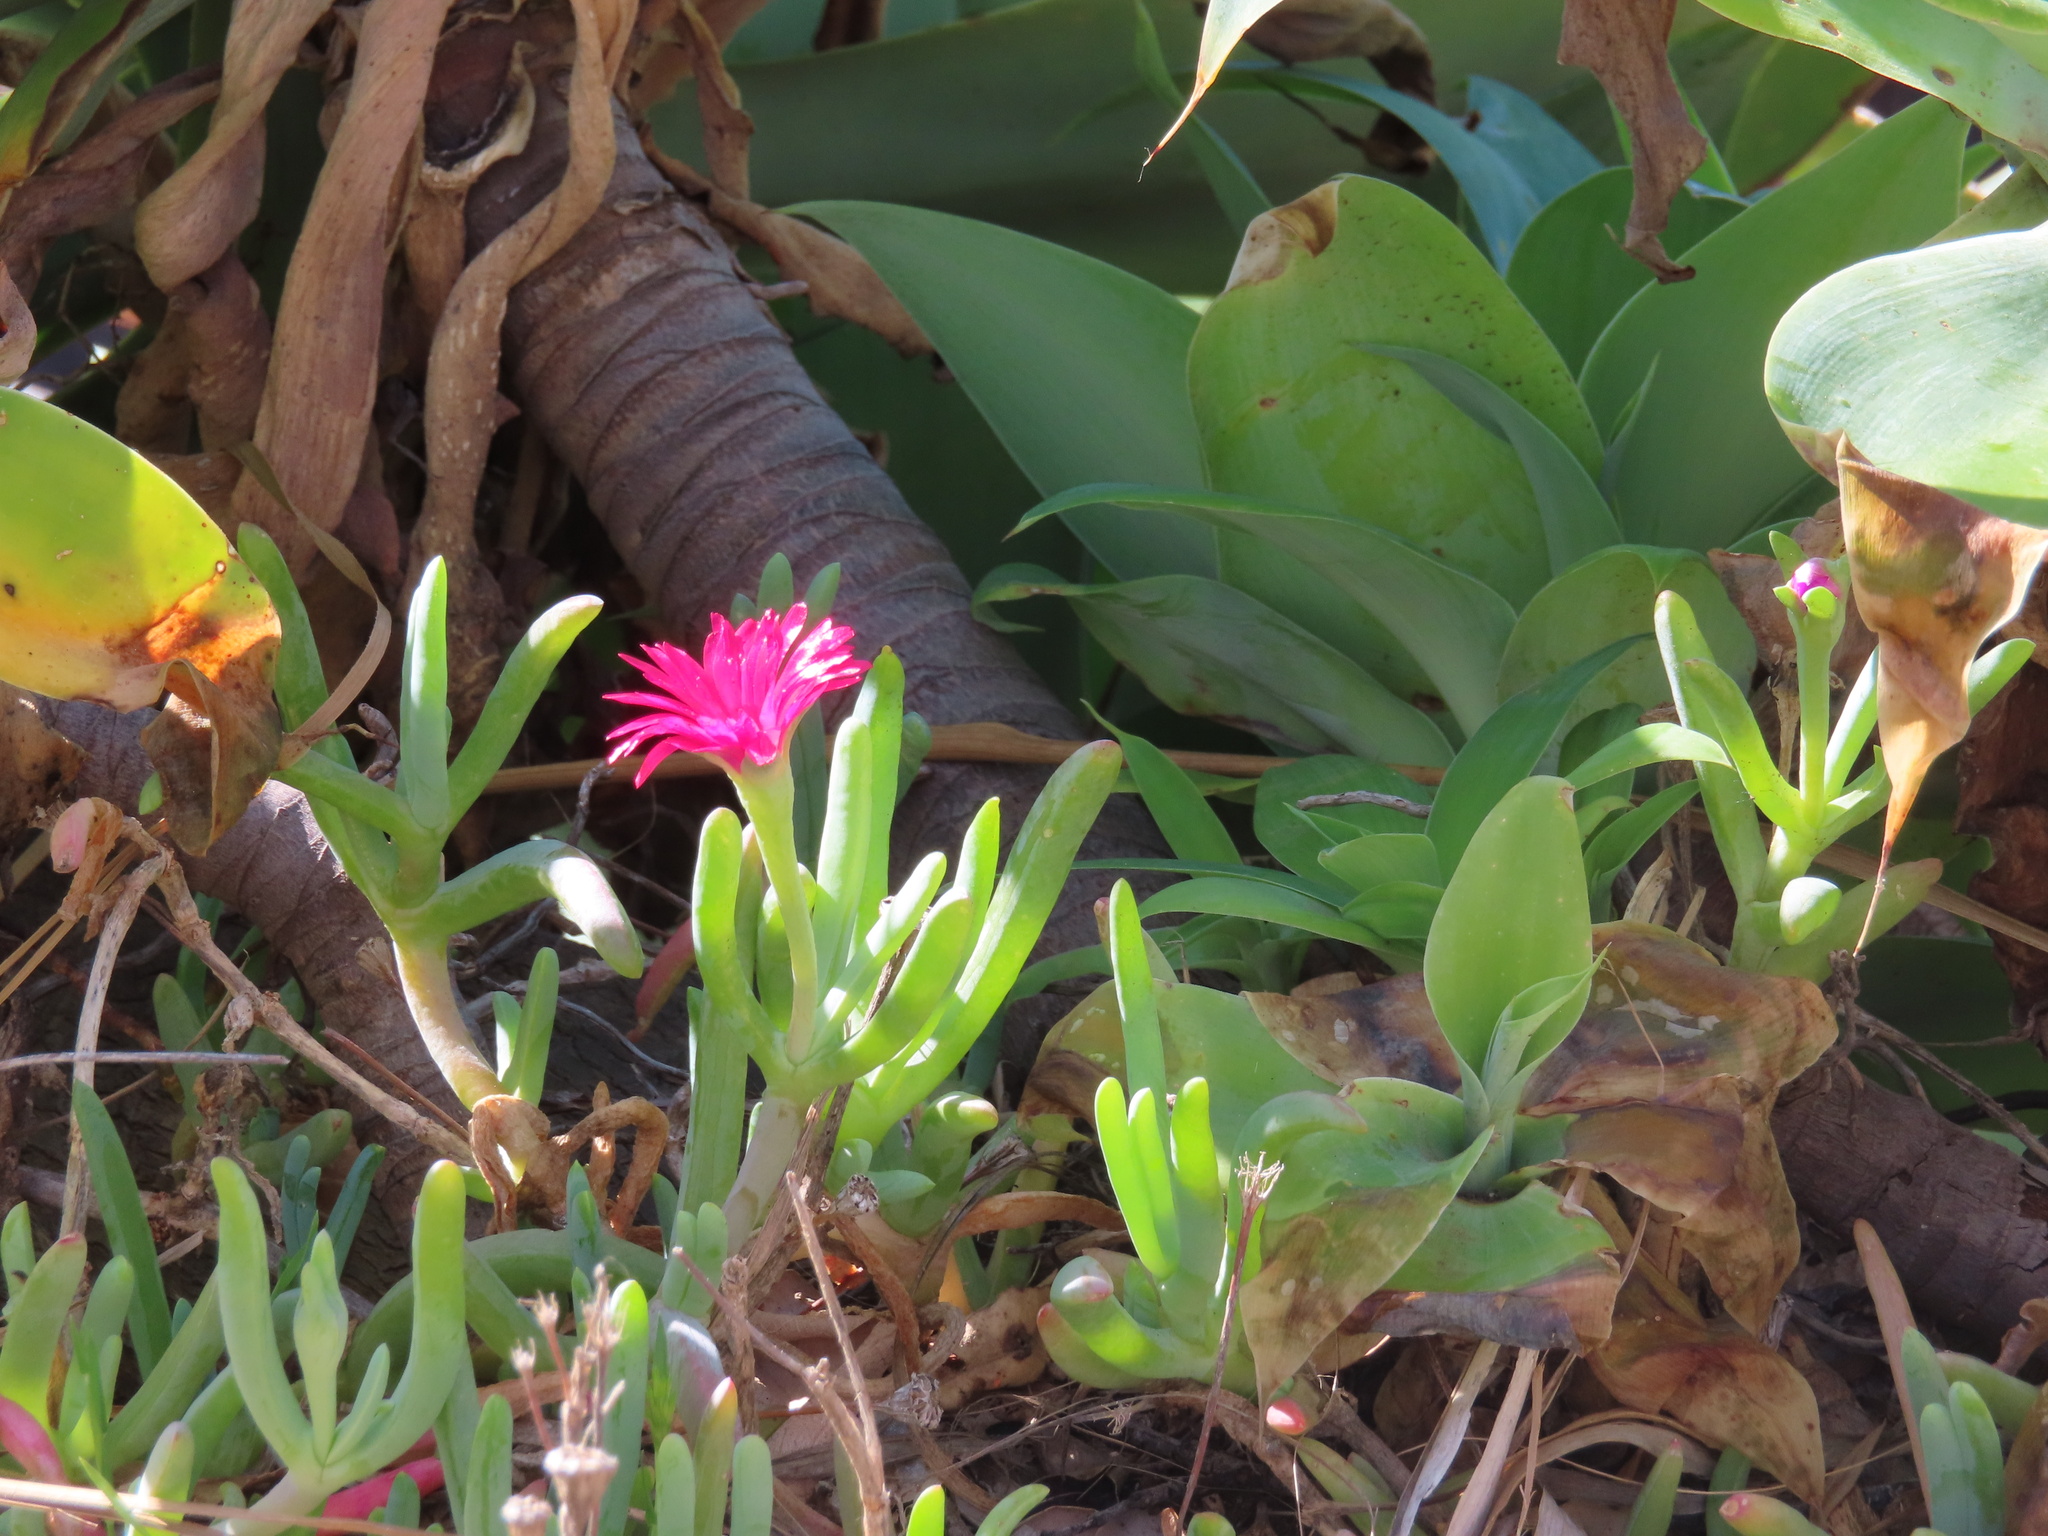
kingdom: Plantae
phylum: Tracheophyta
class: Magnoliopsida
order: Caryophyllales
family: Aizoaceae
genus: Delosperma
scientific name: Delosperma cooperi
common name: Hardy iceplant
